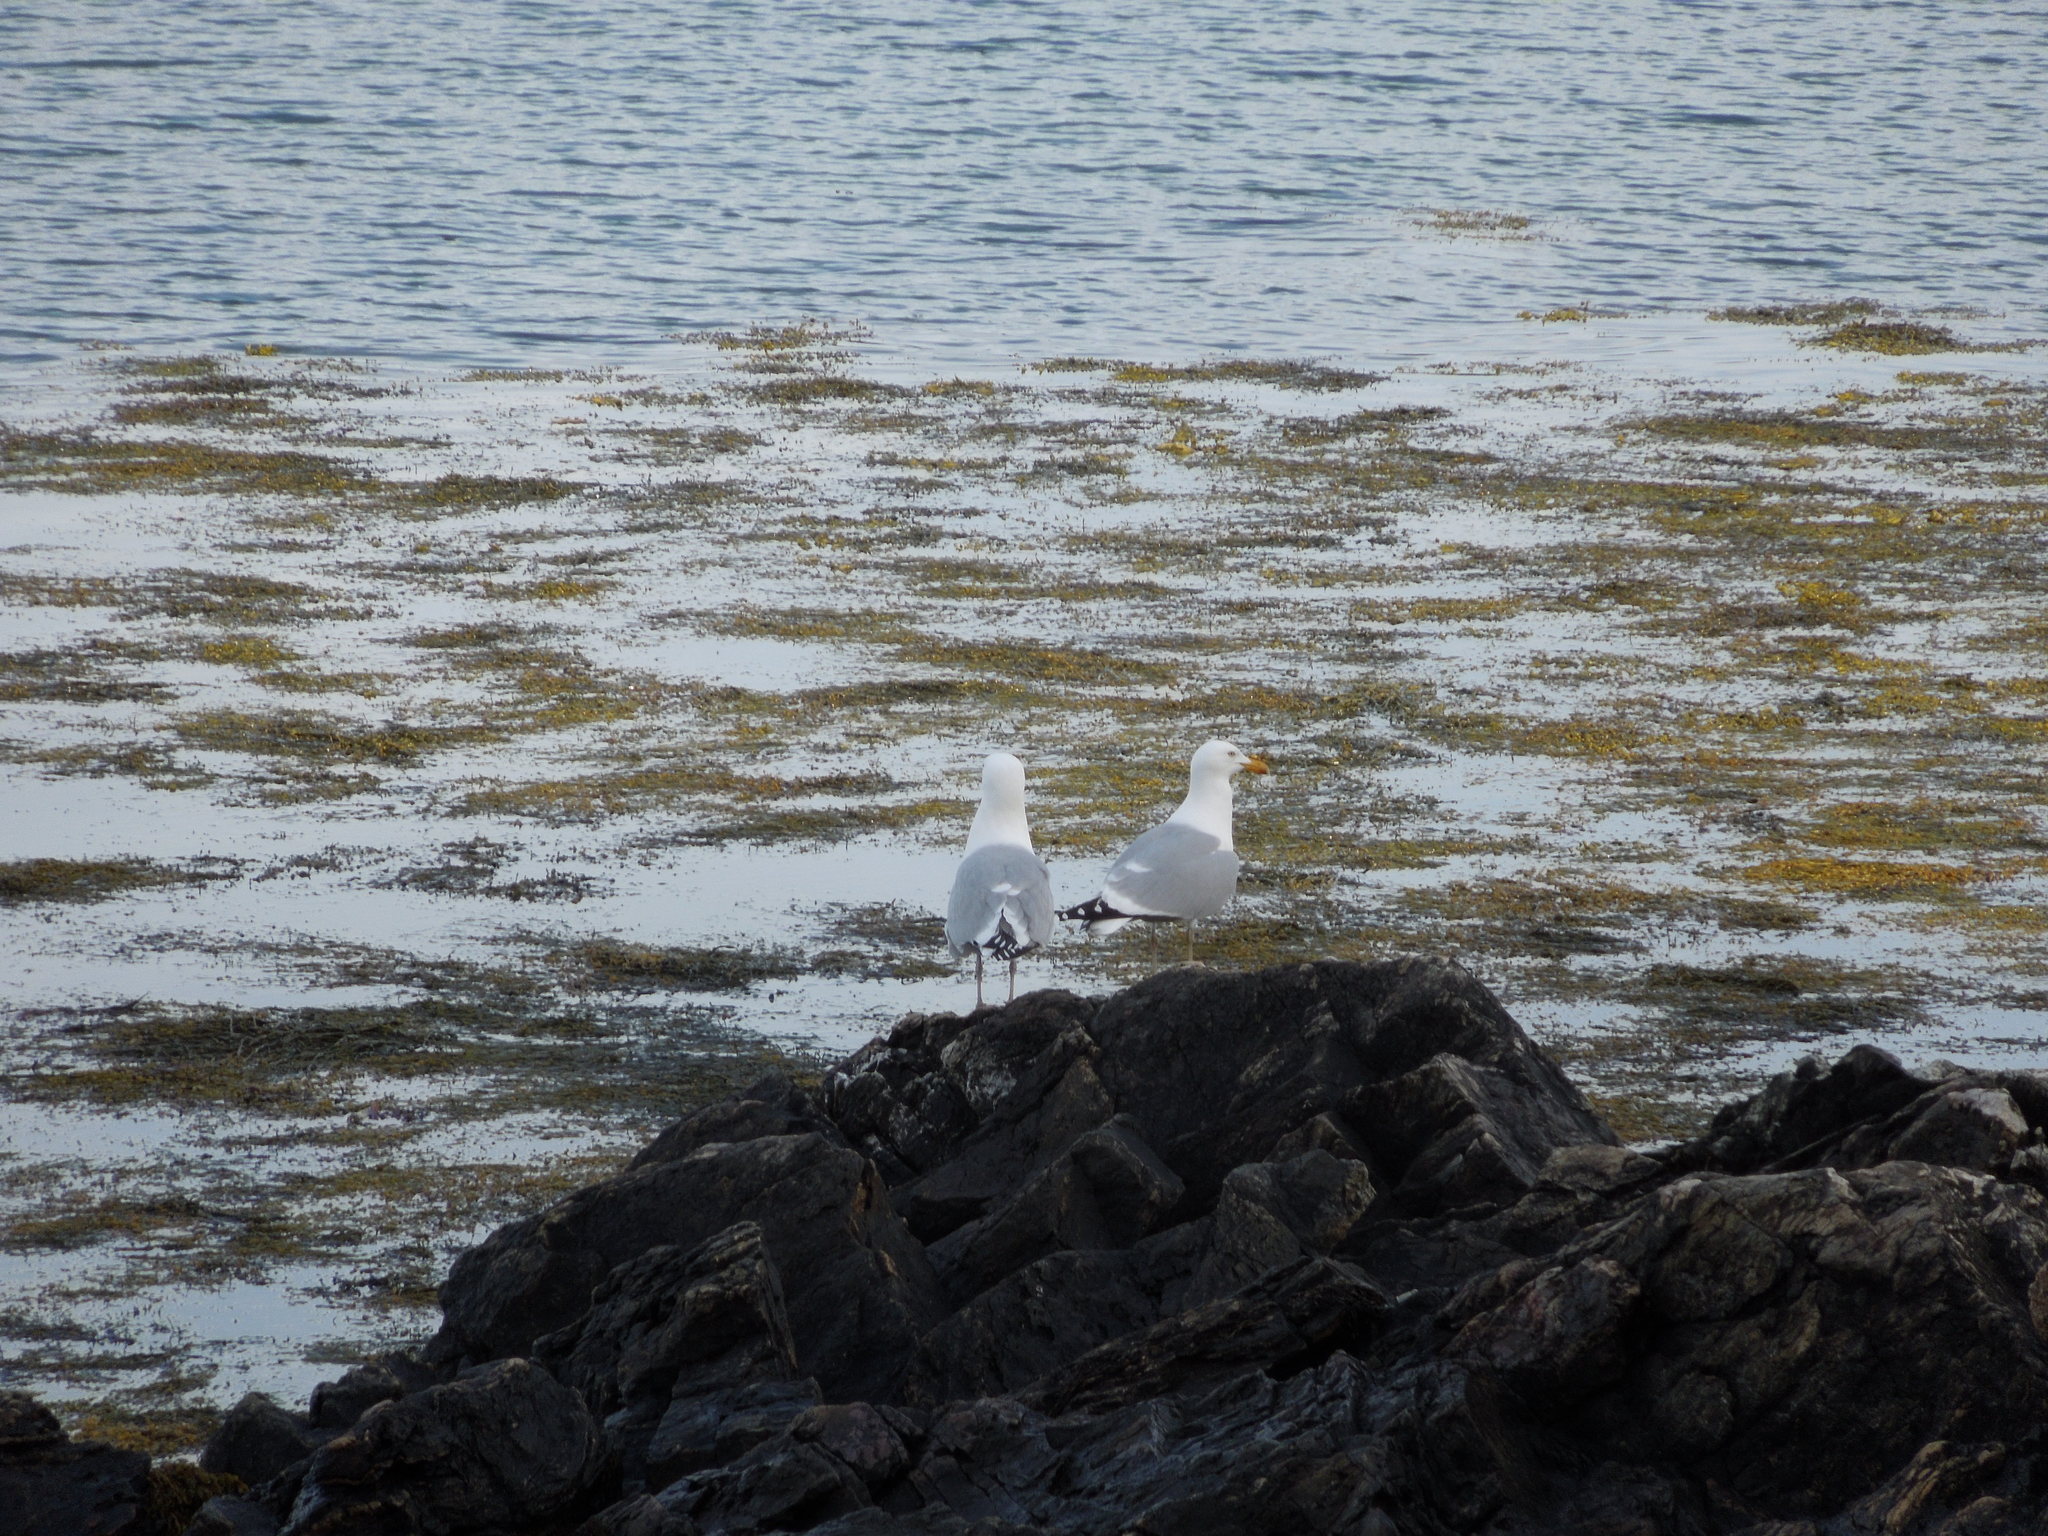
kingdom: Animalia
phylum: Chordata
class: Aves
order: Charadriiformes
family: Laridae
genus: Larus
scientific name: Larus argentatus
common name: Herring gull
